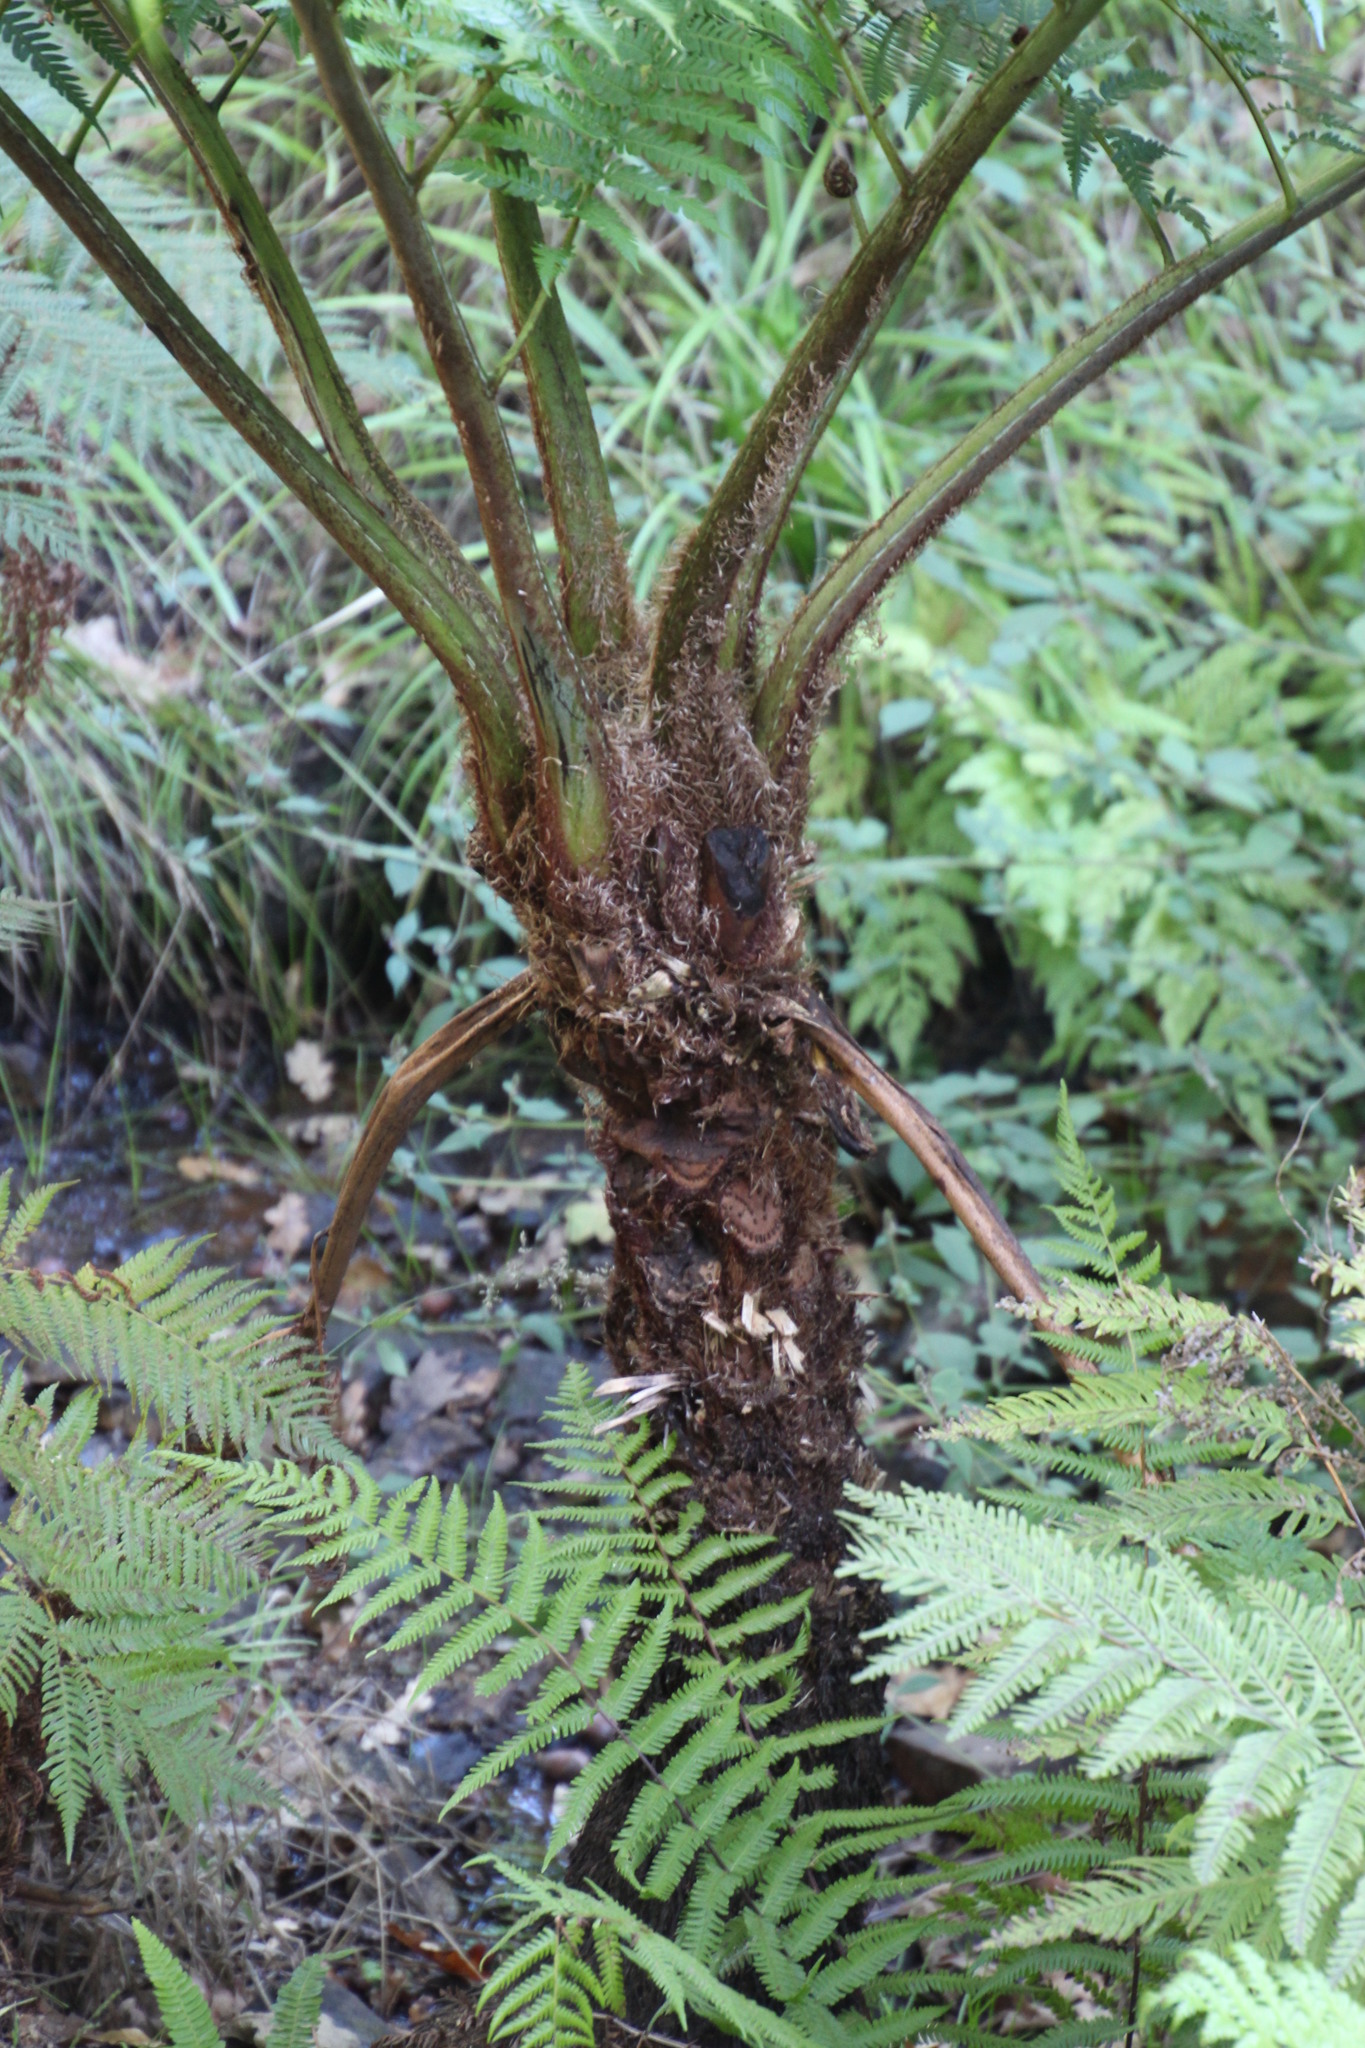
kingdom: Plantae
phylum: Tracheophyta
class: Polypodiopsida
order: Cyatheales
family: Cyatheaceae
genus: Sphaeropteris
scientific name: Sphaeropteris cooperi
